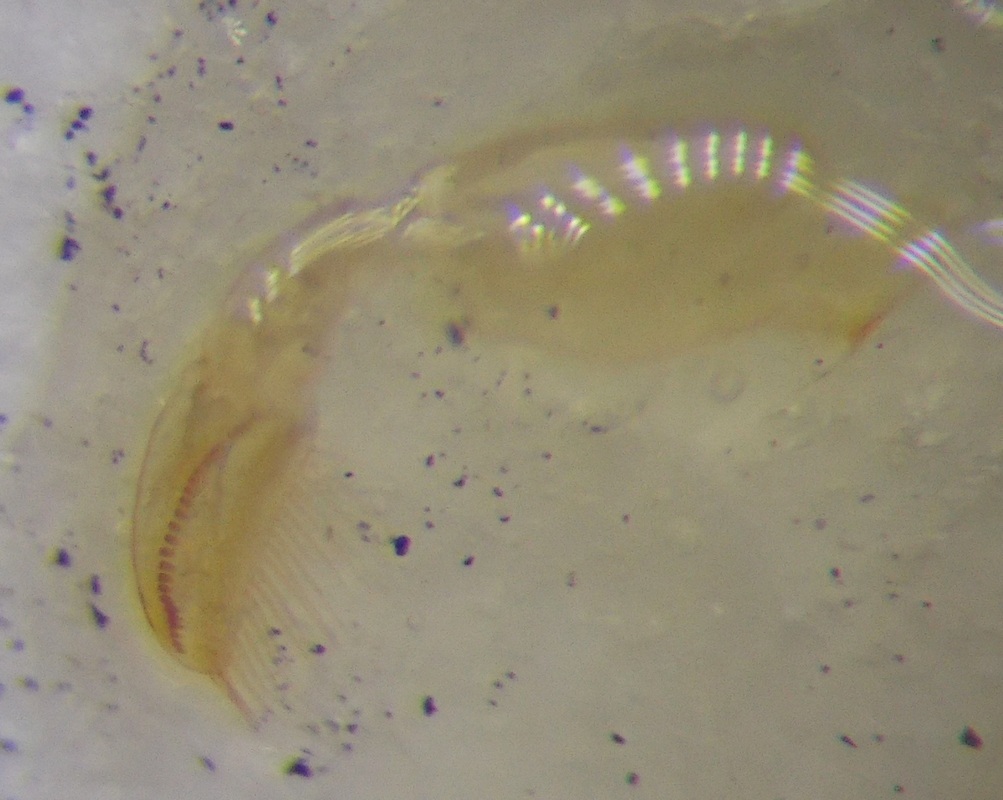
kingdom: Animalia
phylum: Arthropoda
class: Insecta
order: Hemiptera
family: Corixidae
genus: Sigara
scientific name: Sigara lateralis
